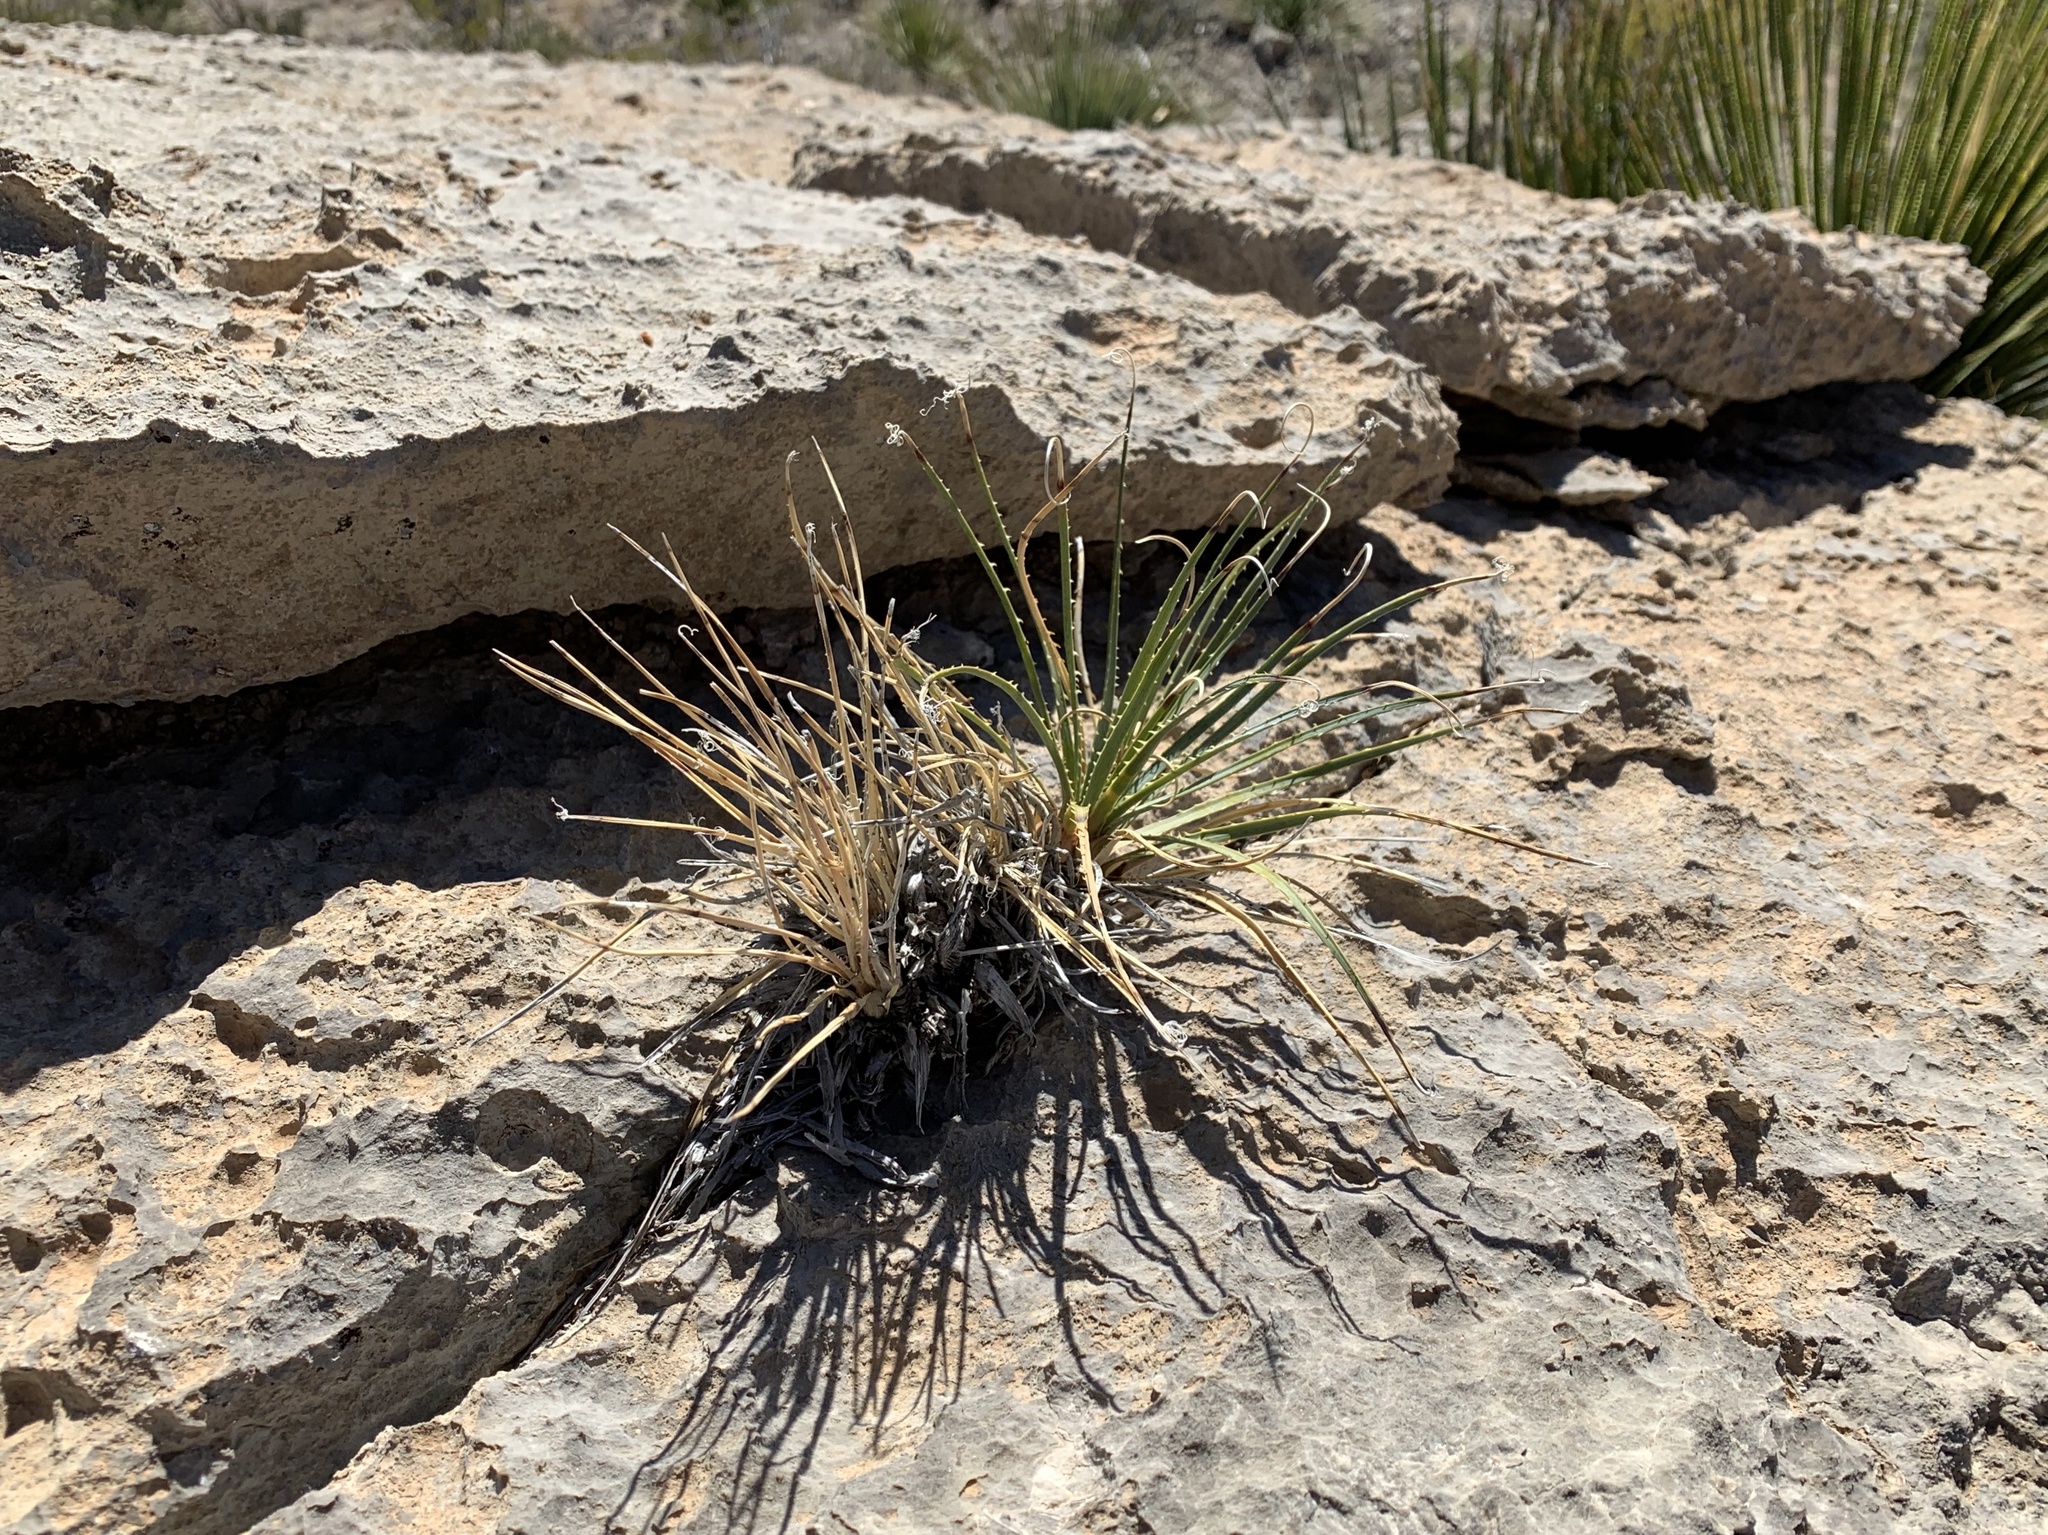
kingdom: Plantae
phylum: Tracheophyta
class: Liliopsida
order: Asparagales
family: Asparagaceae
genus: Dasylirion
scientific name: Dasylirion wheeleri
